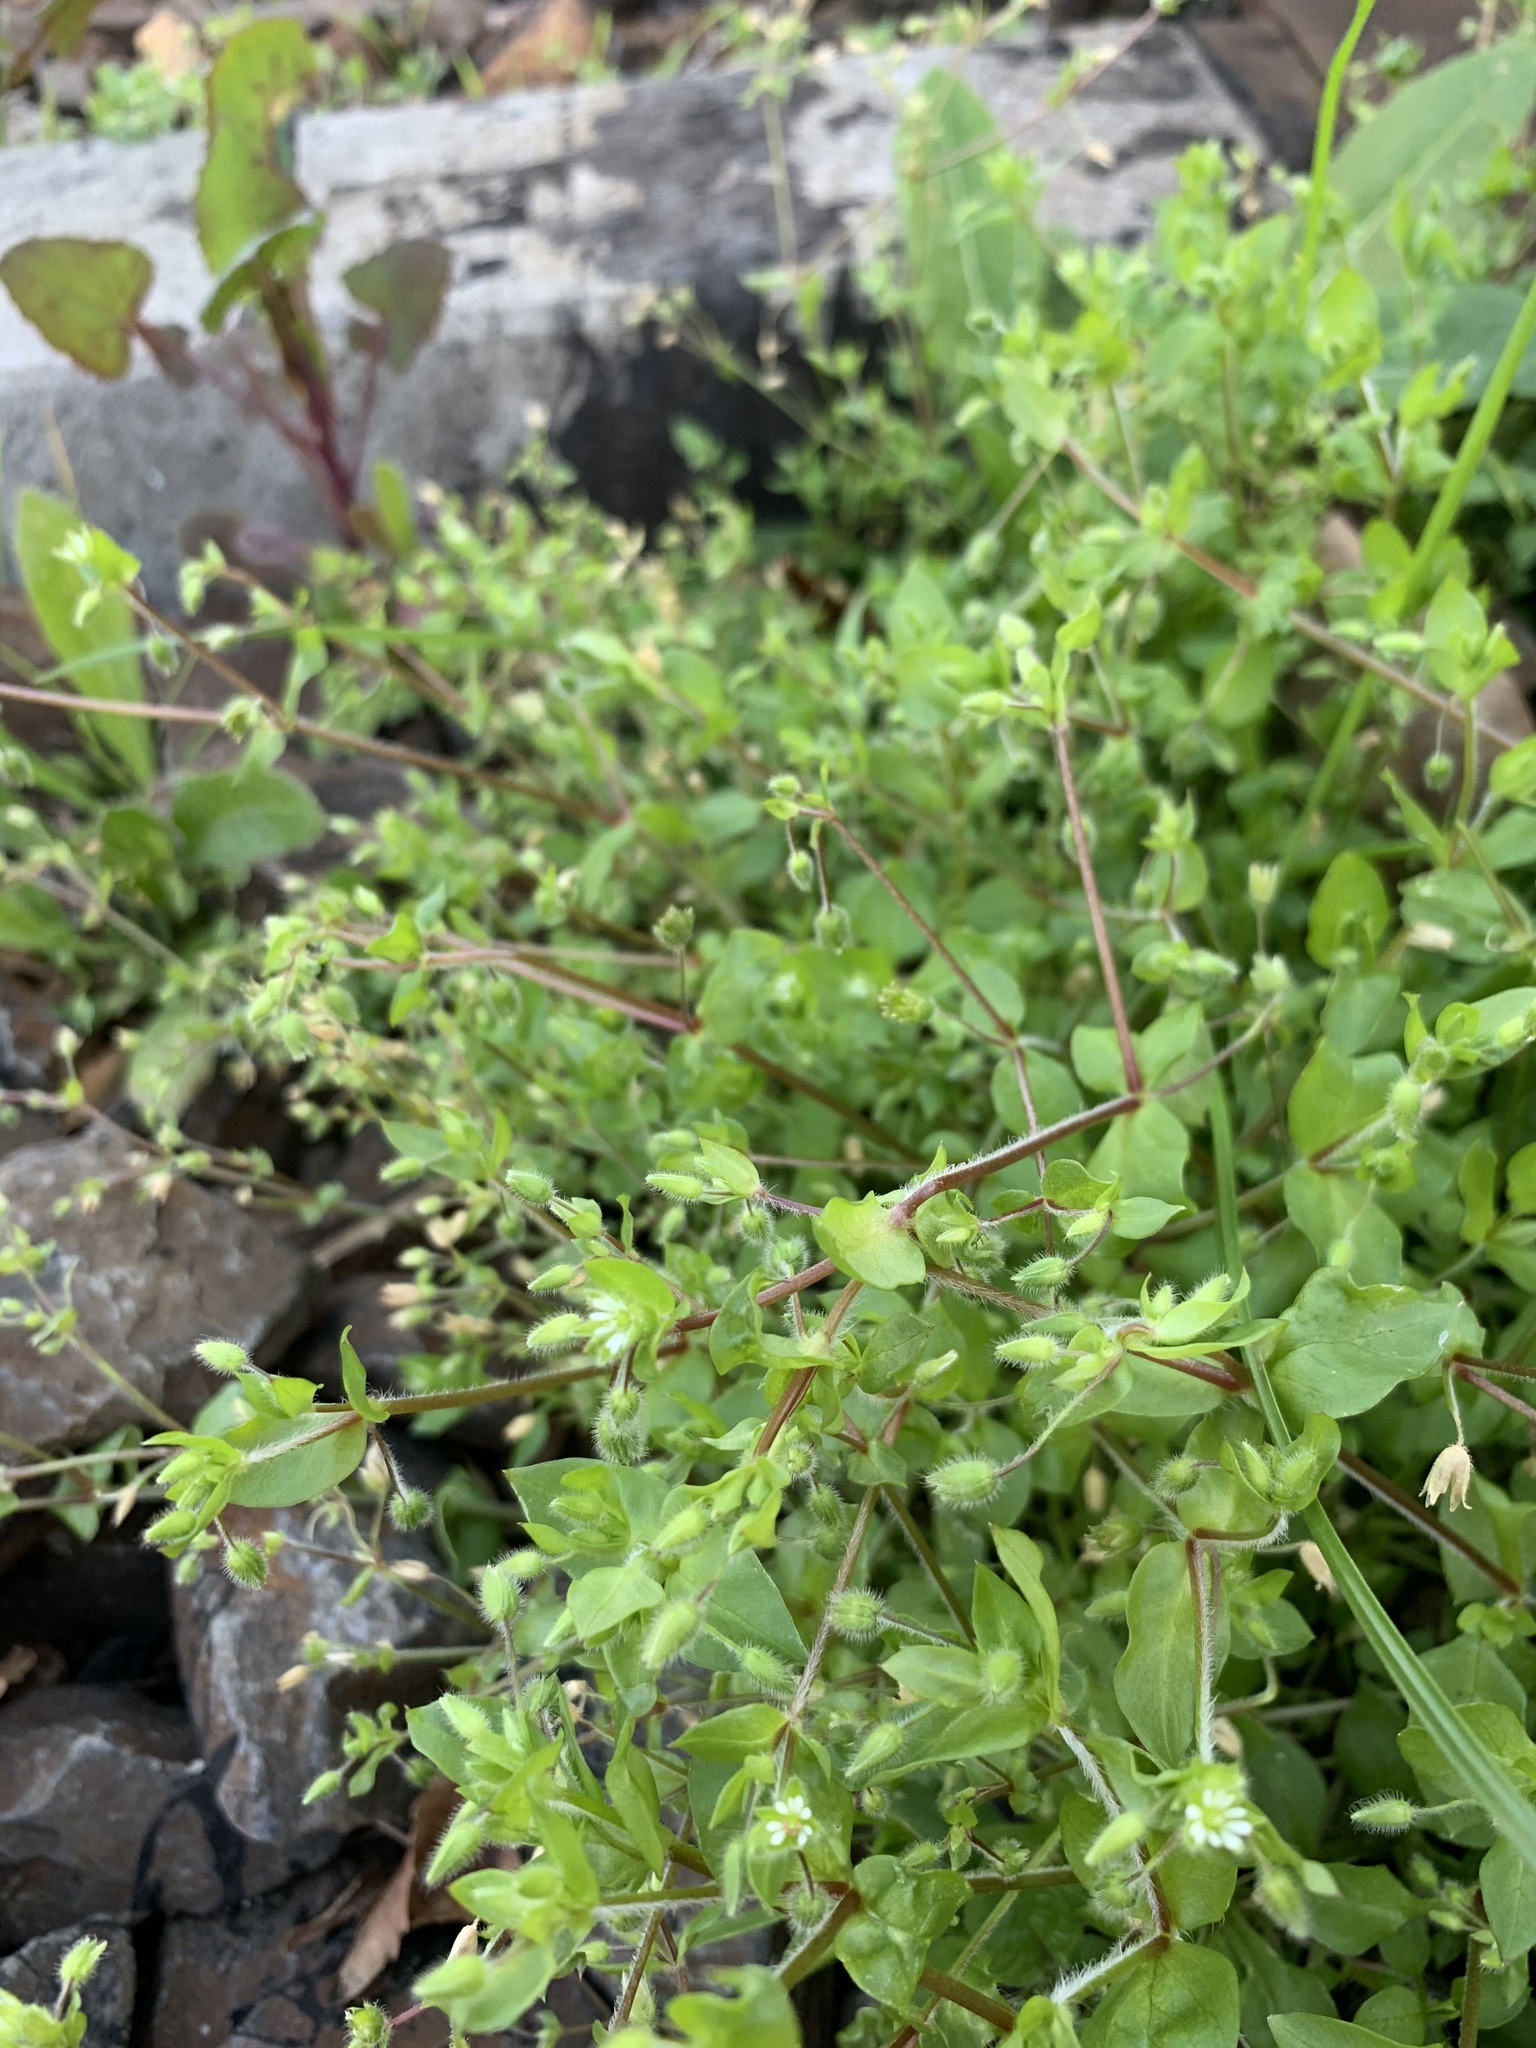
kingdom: Plantae
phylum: Tracheophyta
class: Magnoliopsida
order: Caryophyllales
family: Caryophyllaceae
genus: Stellaria
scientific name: Stellaria media
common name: Common chickweed
